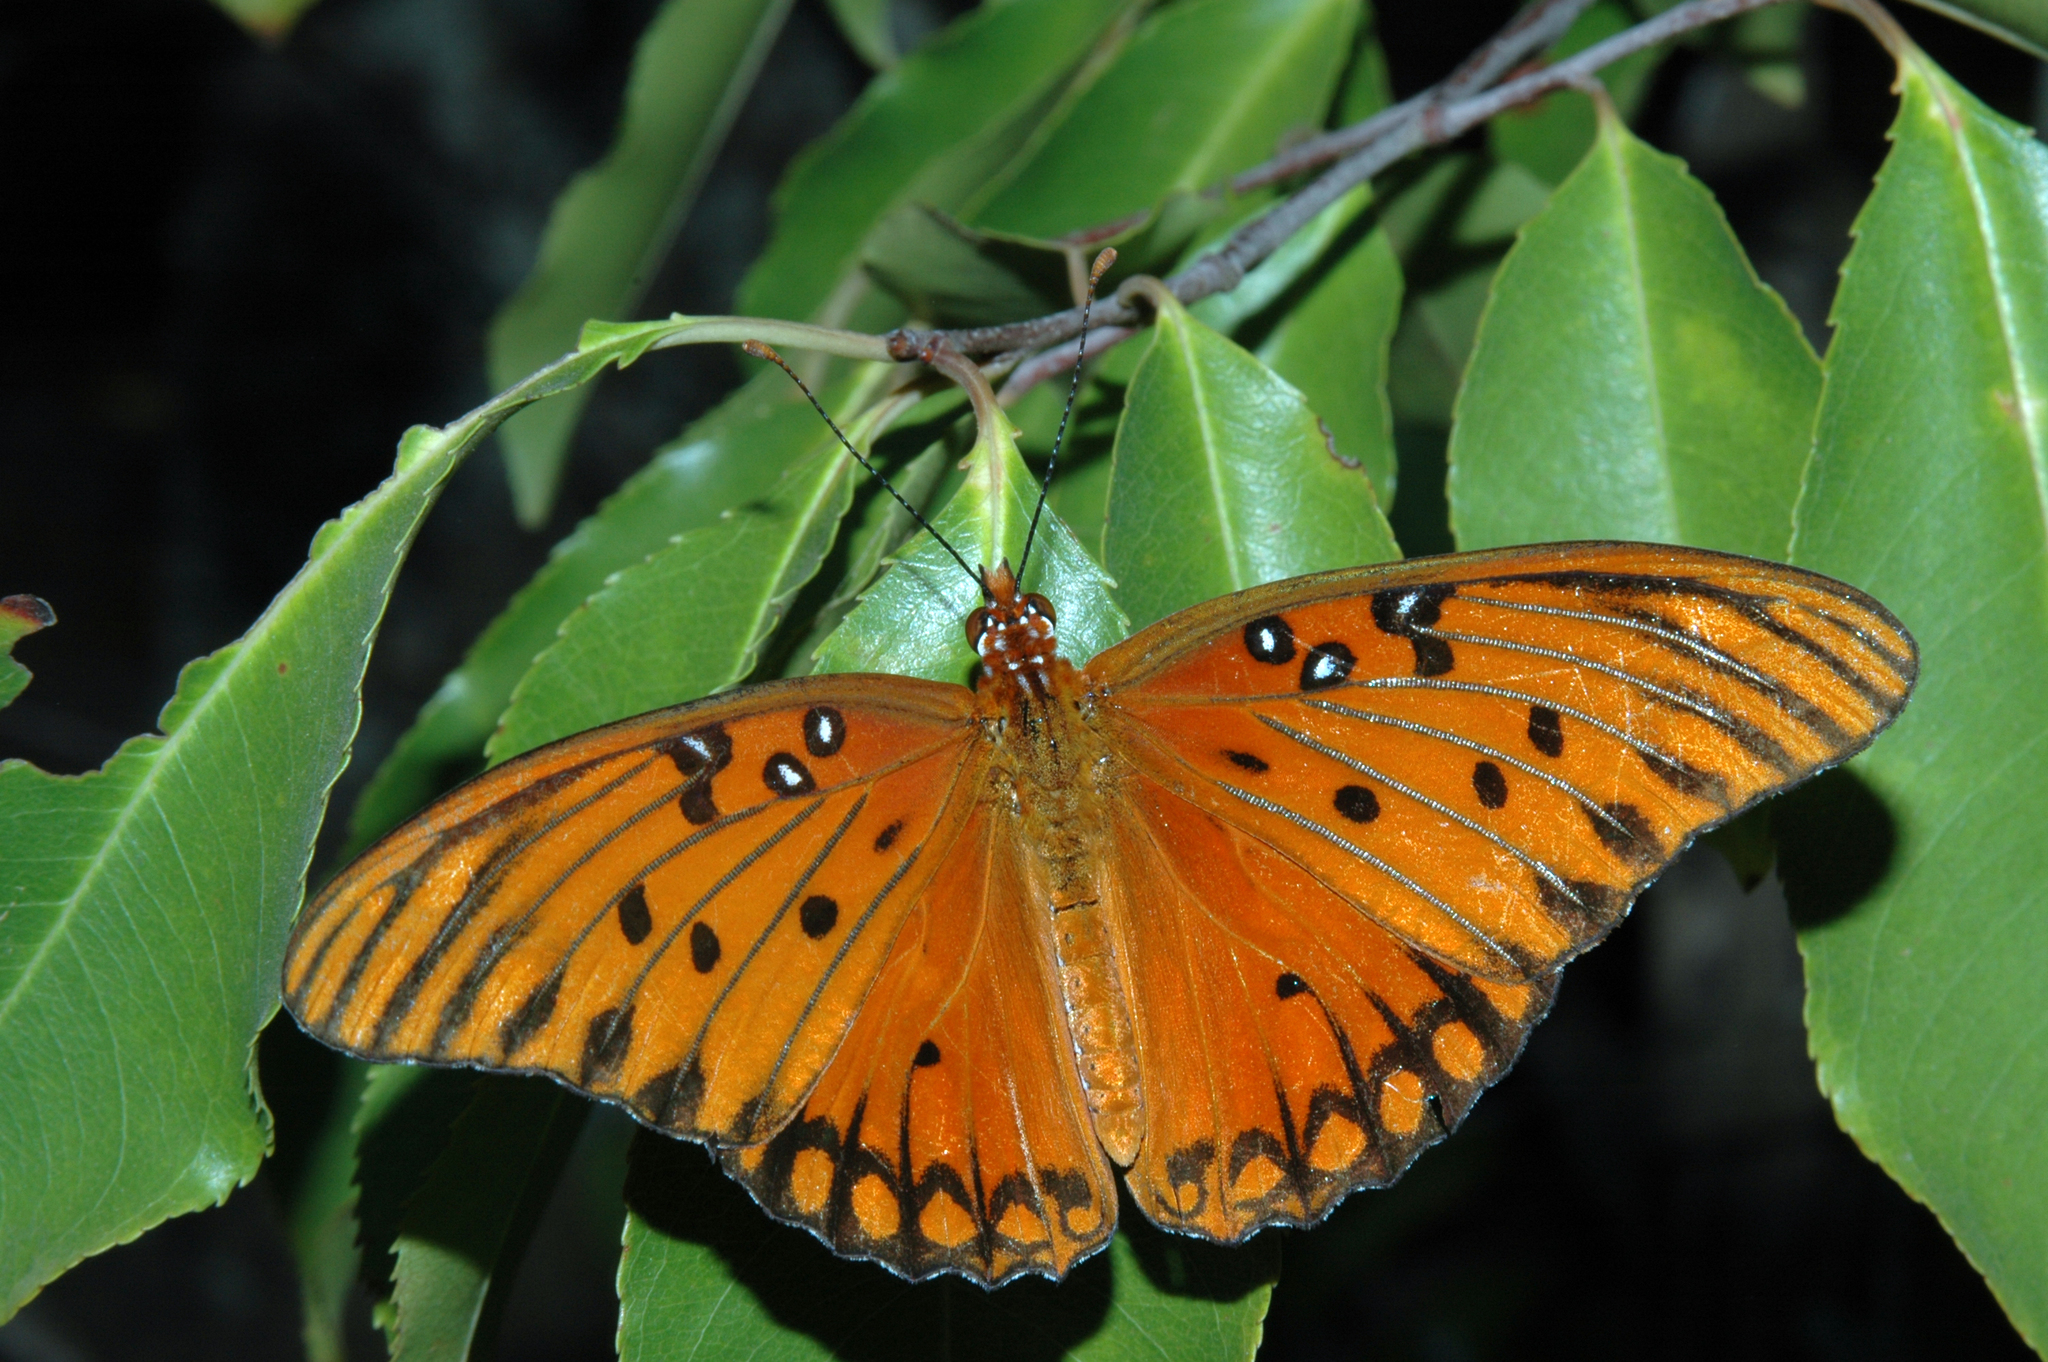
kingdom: Animalia
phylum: Arthropoda
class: Insecta
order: Lepidoptera
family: Nymphalidae
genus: Dione
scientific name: Dione vanillae
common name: Gulf fritillary
